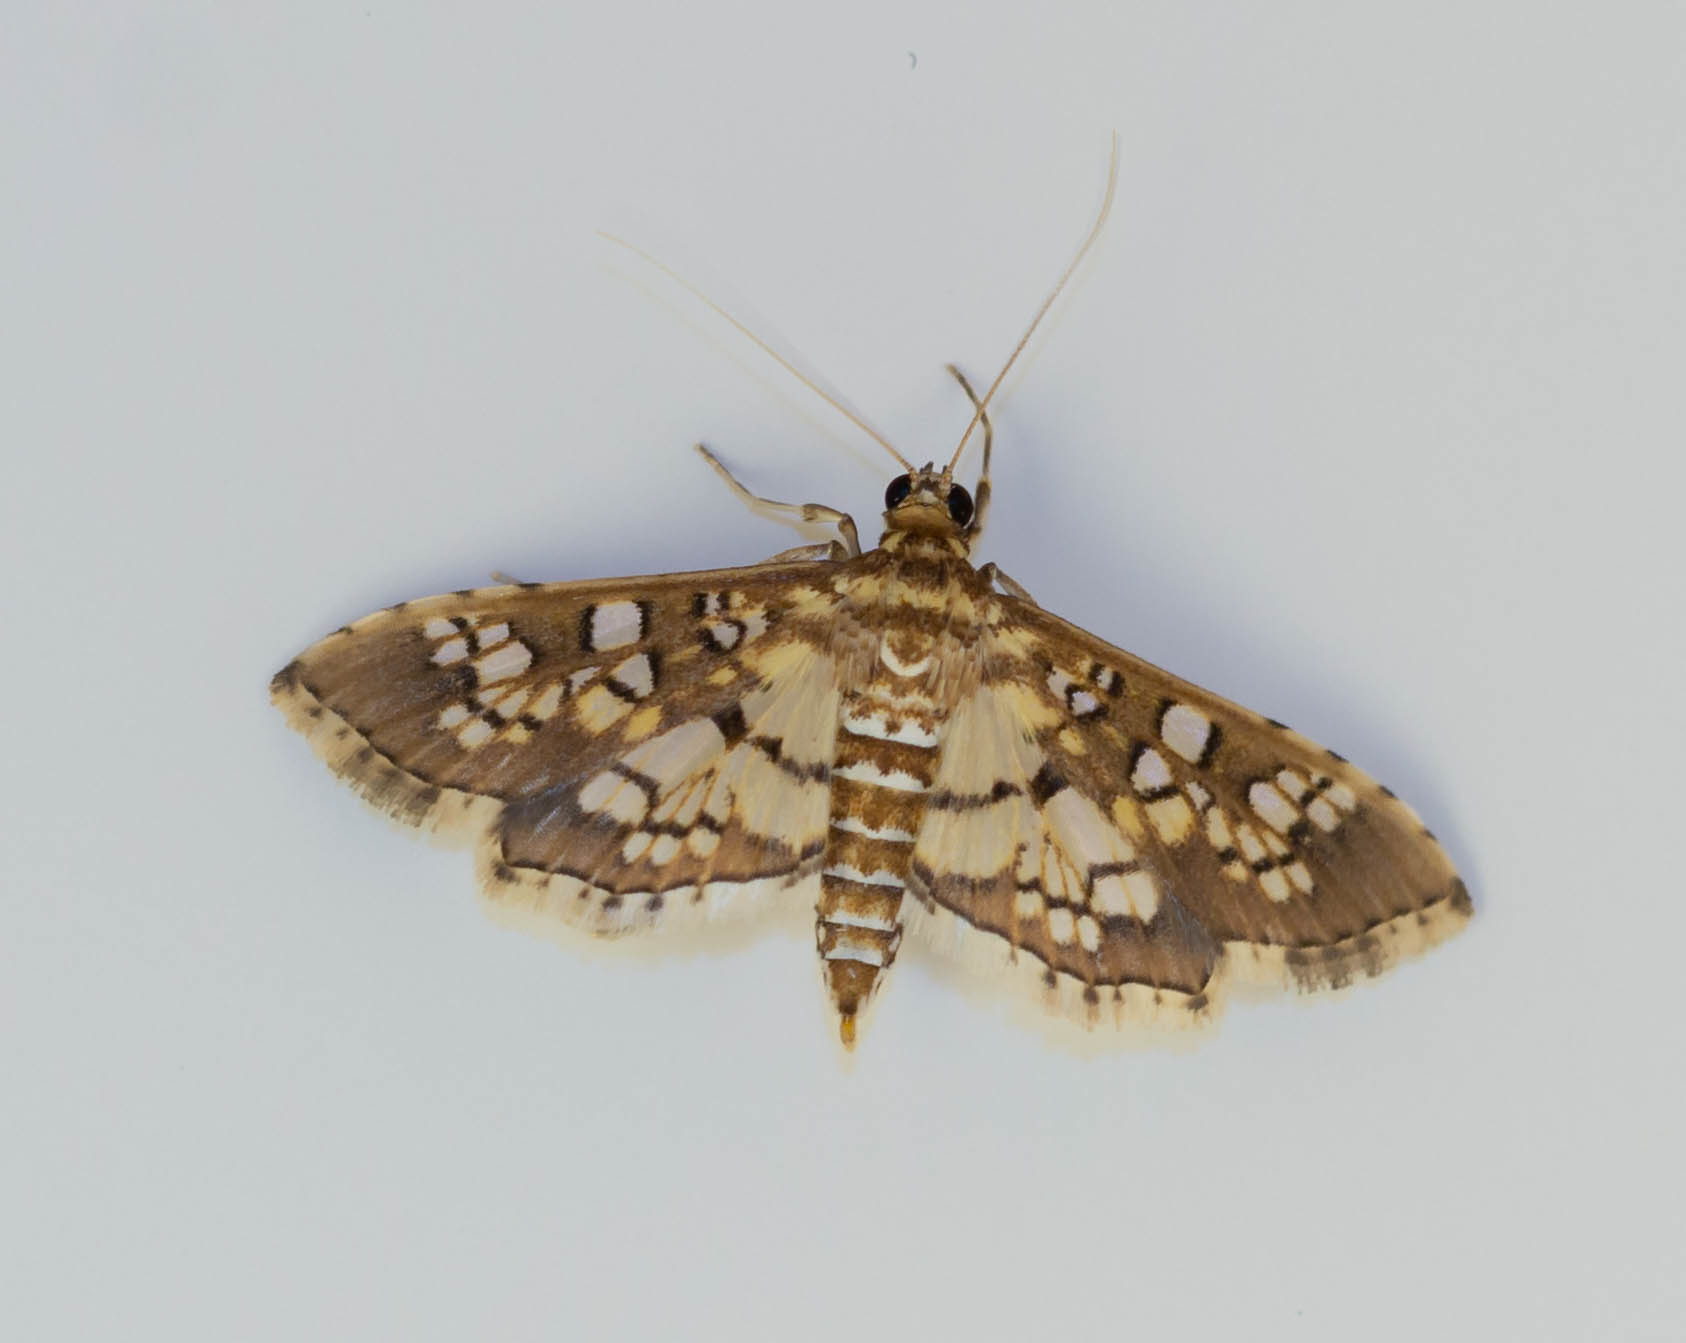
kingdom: Animalia
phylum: Arthropoda
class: Insecta
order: Lepidoptera
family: Crambidae
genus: Samea
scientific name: Samea ecclesialis
